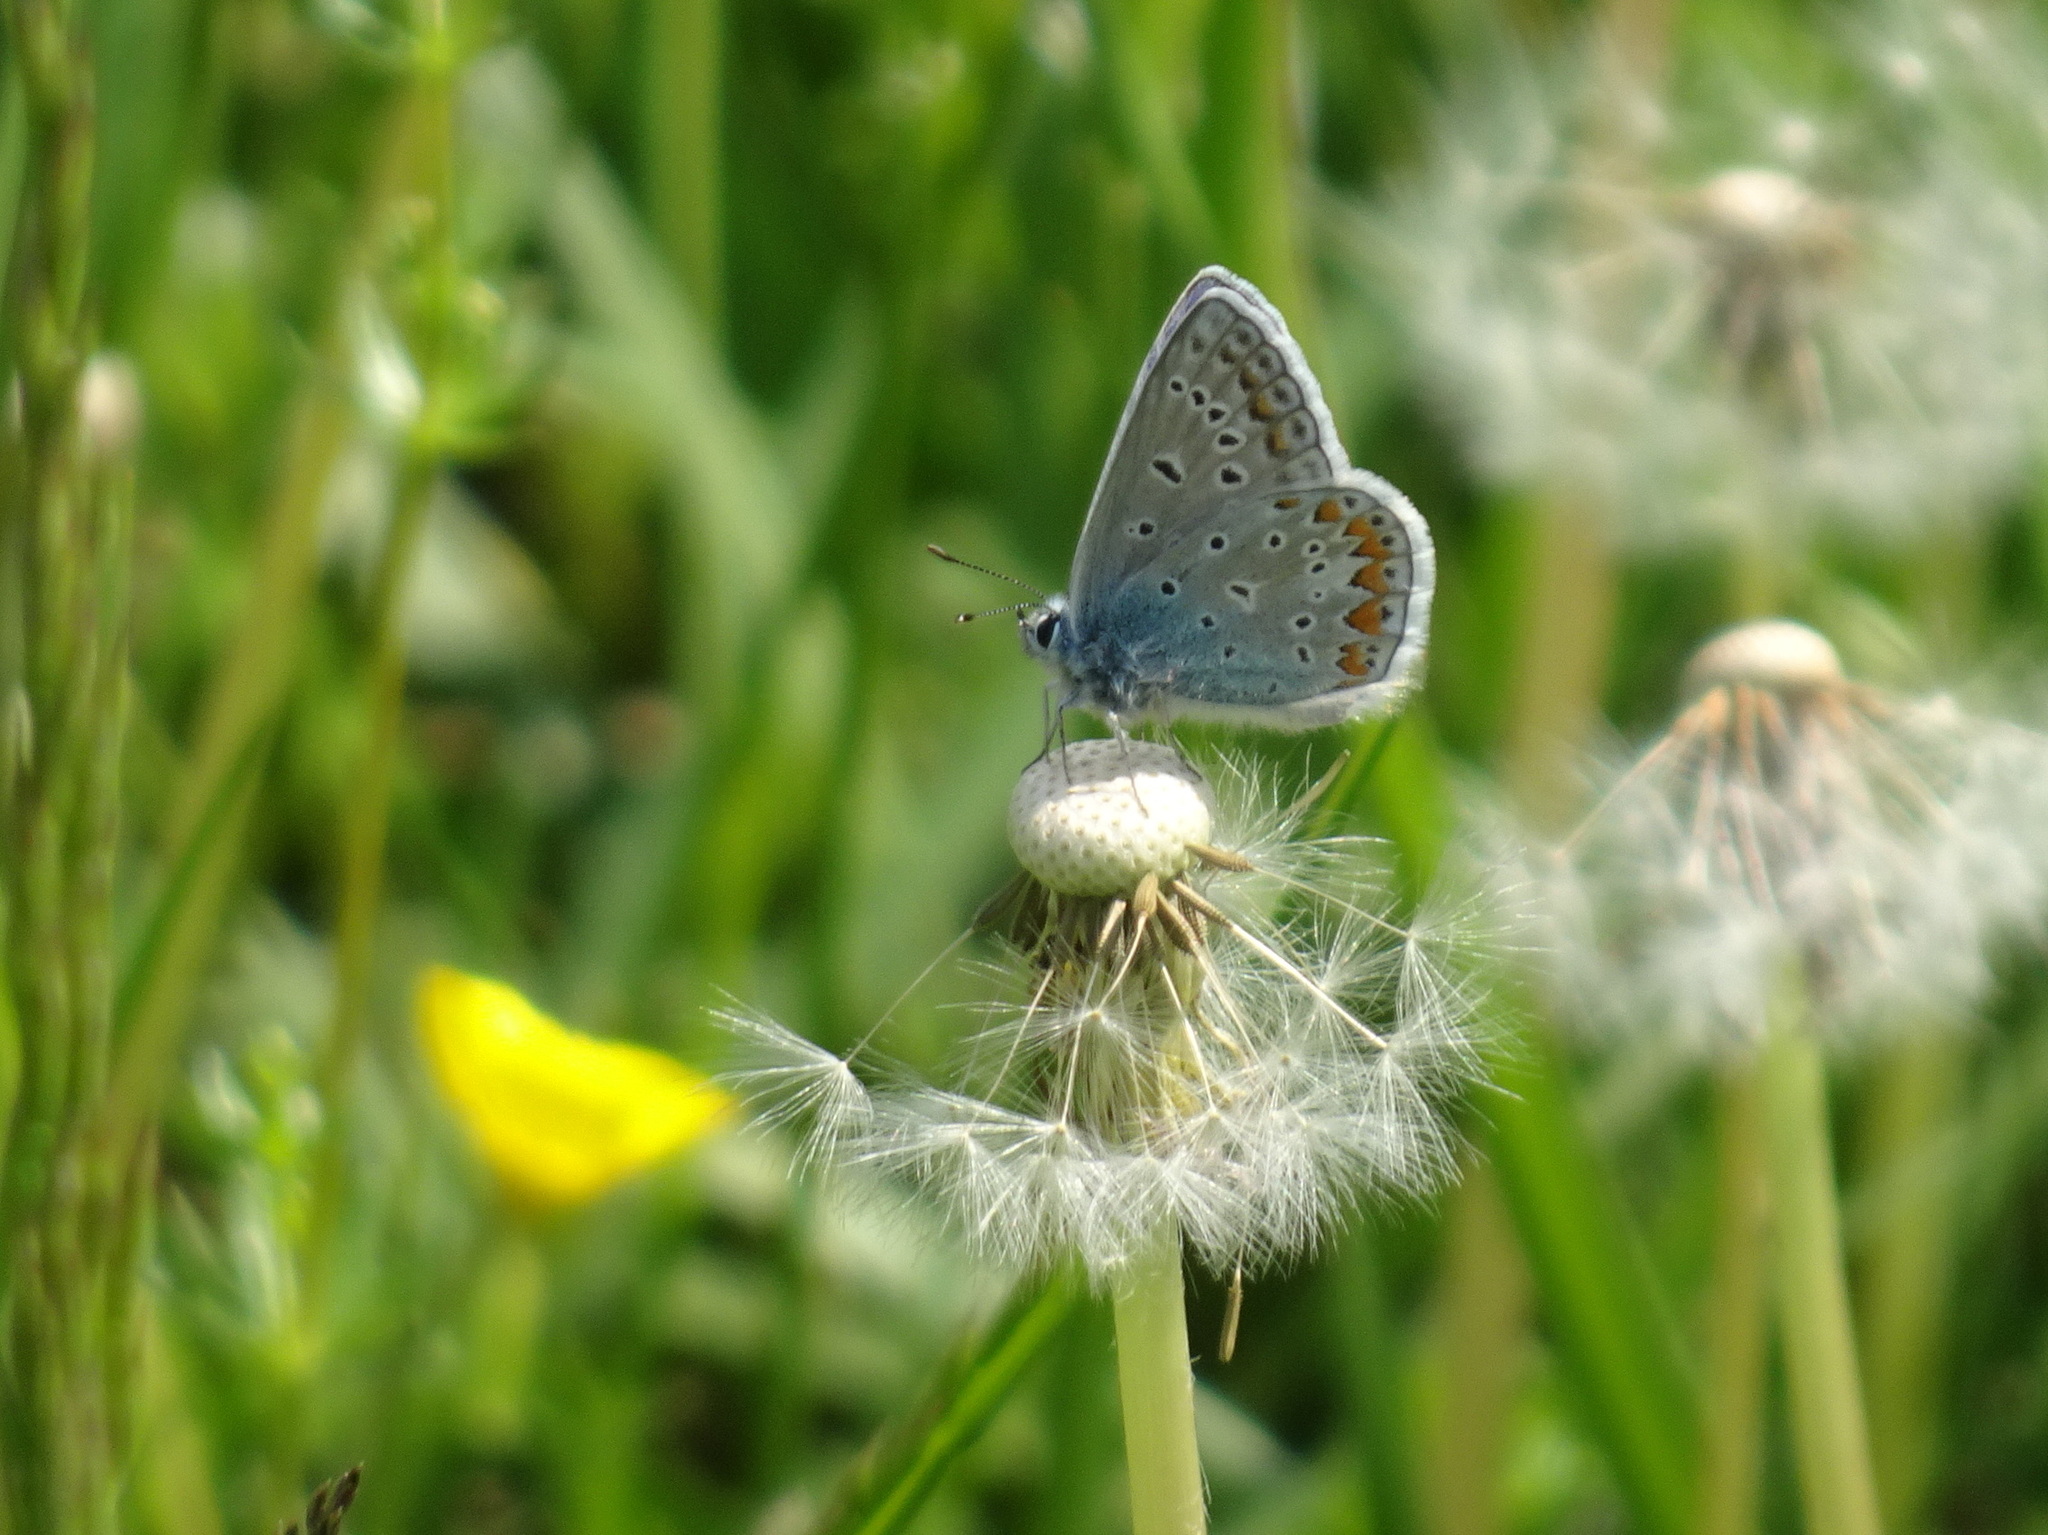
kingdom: Animalia
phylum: Arthropoda
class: Insecta
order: Lepidoptera
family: Lycaenidae
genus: Polyommatus
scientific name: Polyommatus icarus
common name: Common blue
